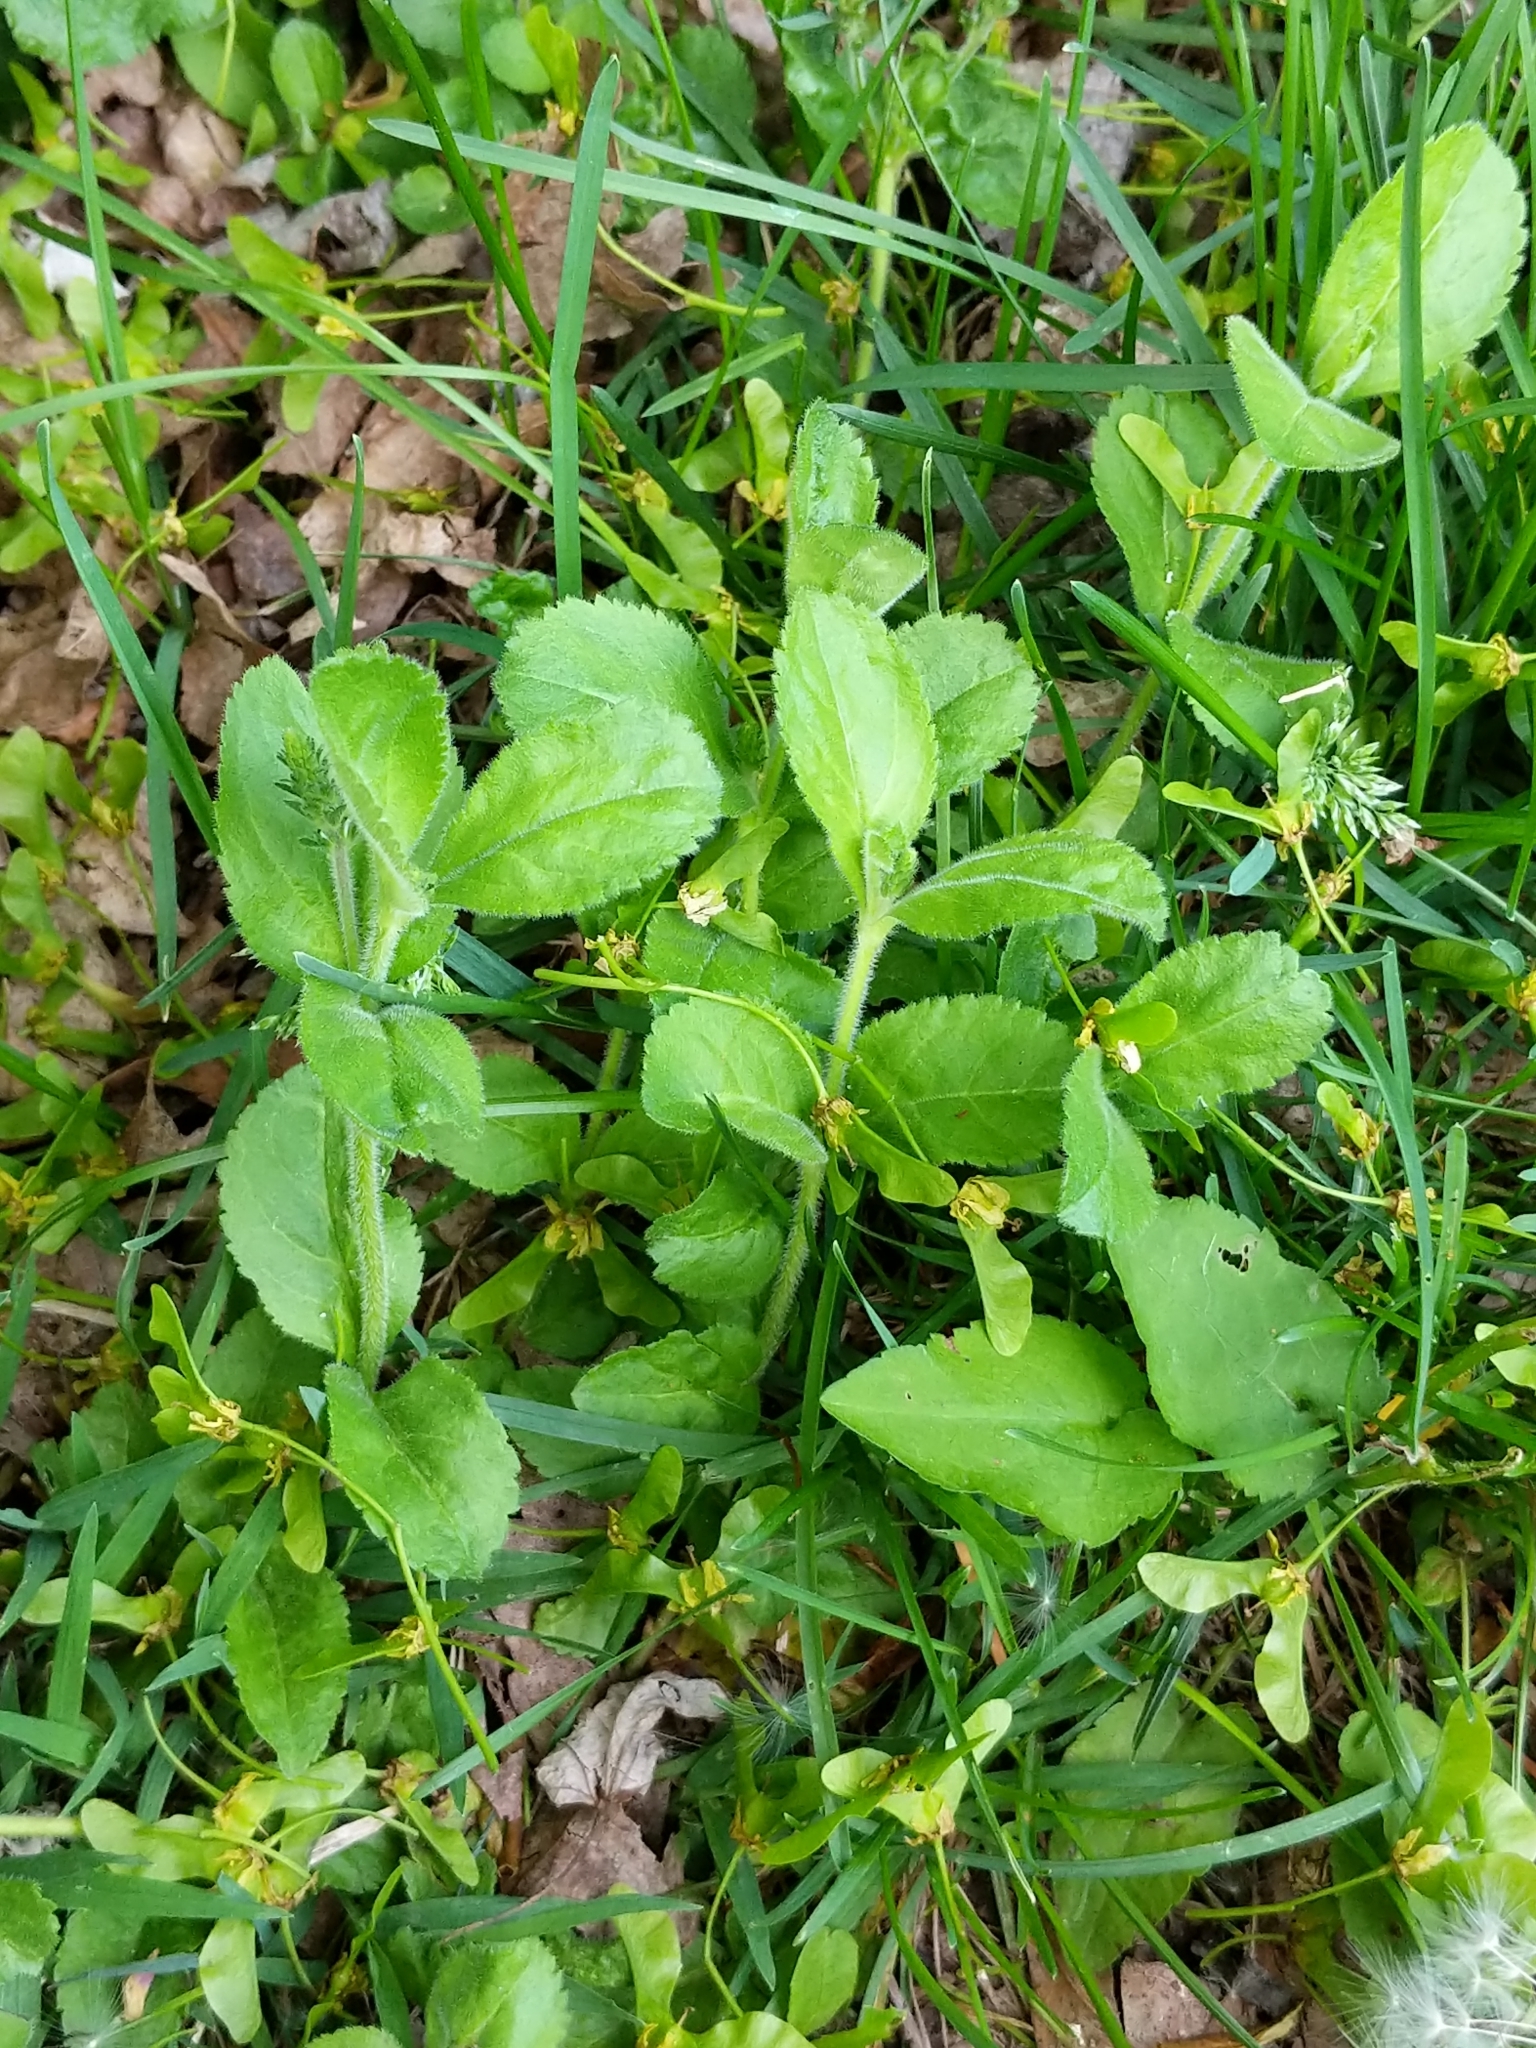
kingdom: Plantae
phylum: Tracheophyta
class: Magnoliopsida
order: Lamiales
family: Plantaginaceae
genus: Veronica
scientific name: Veronica officinalis
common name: Common speedwell
